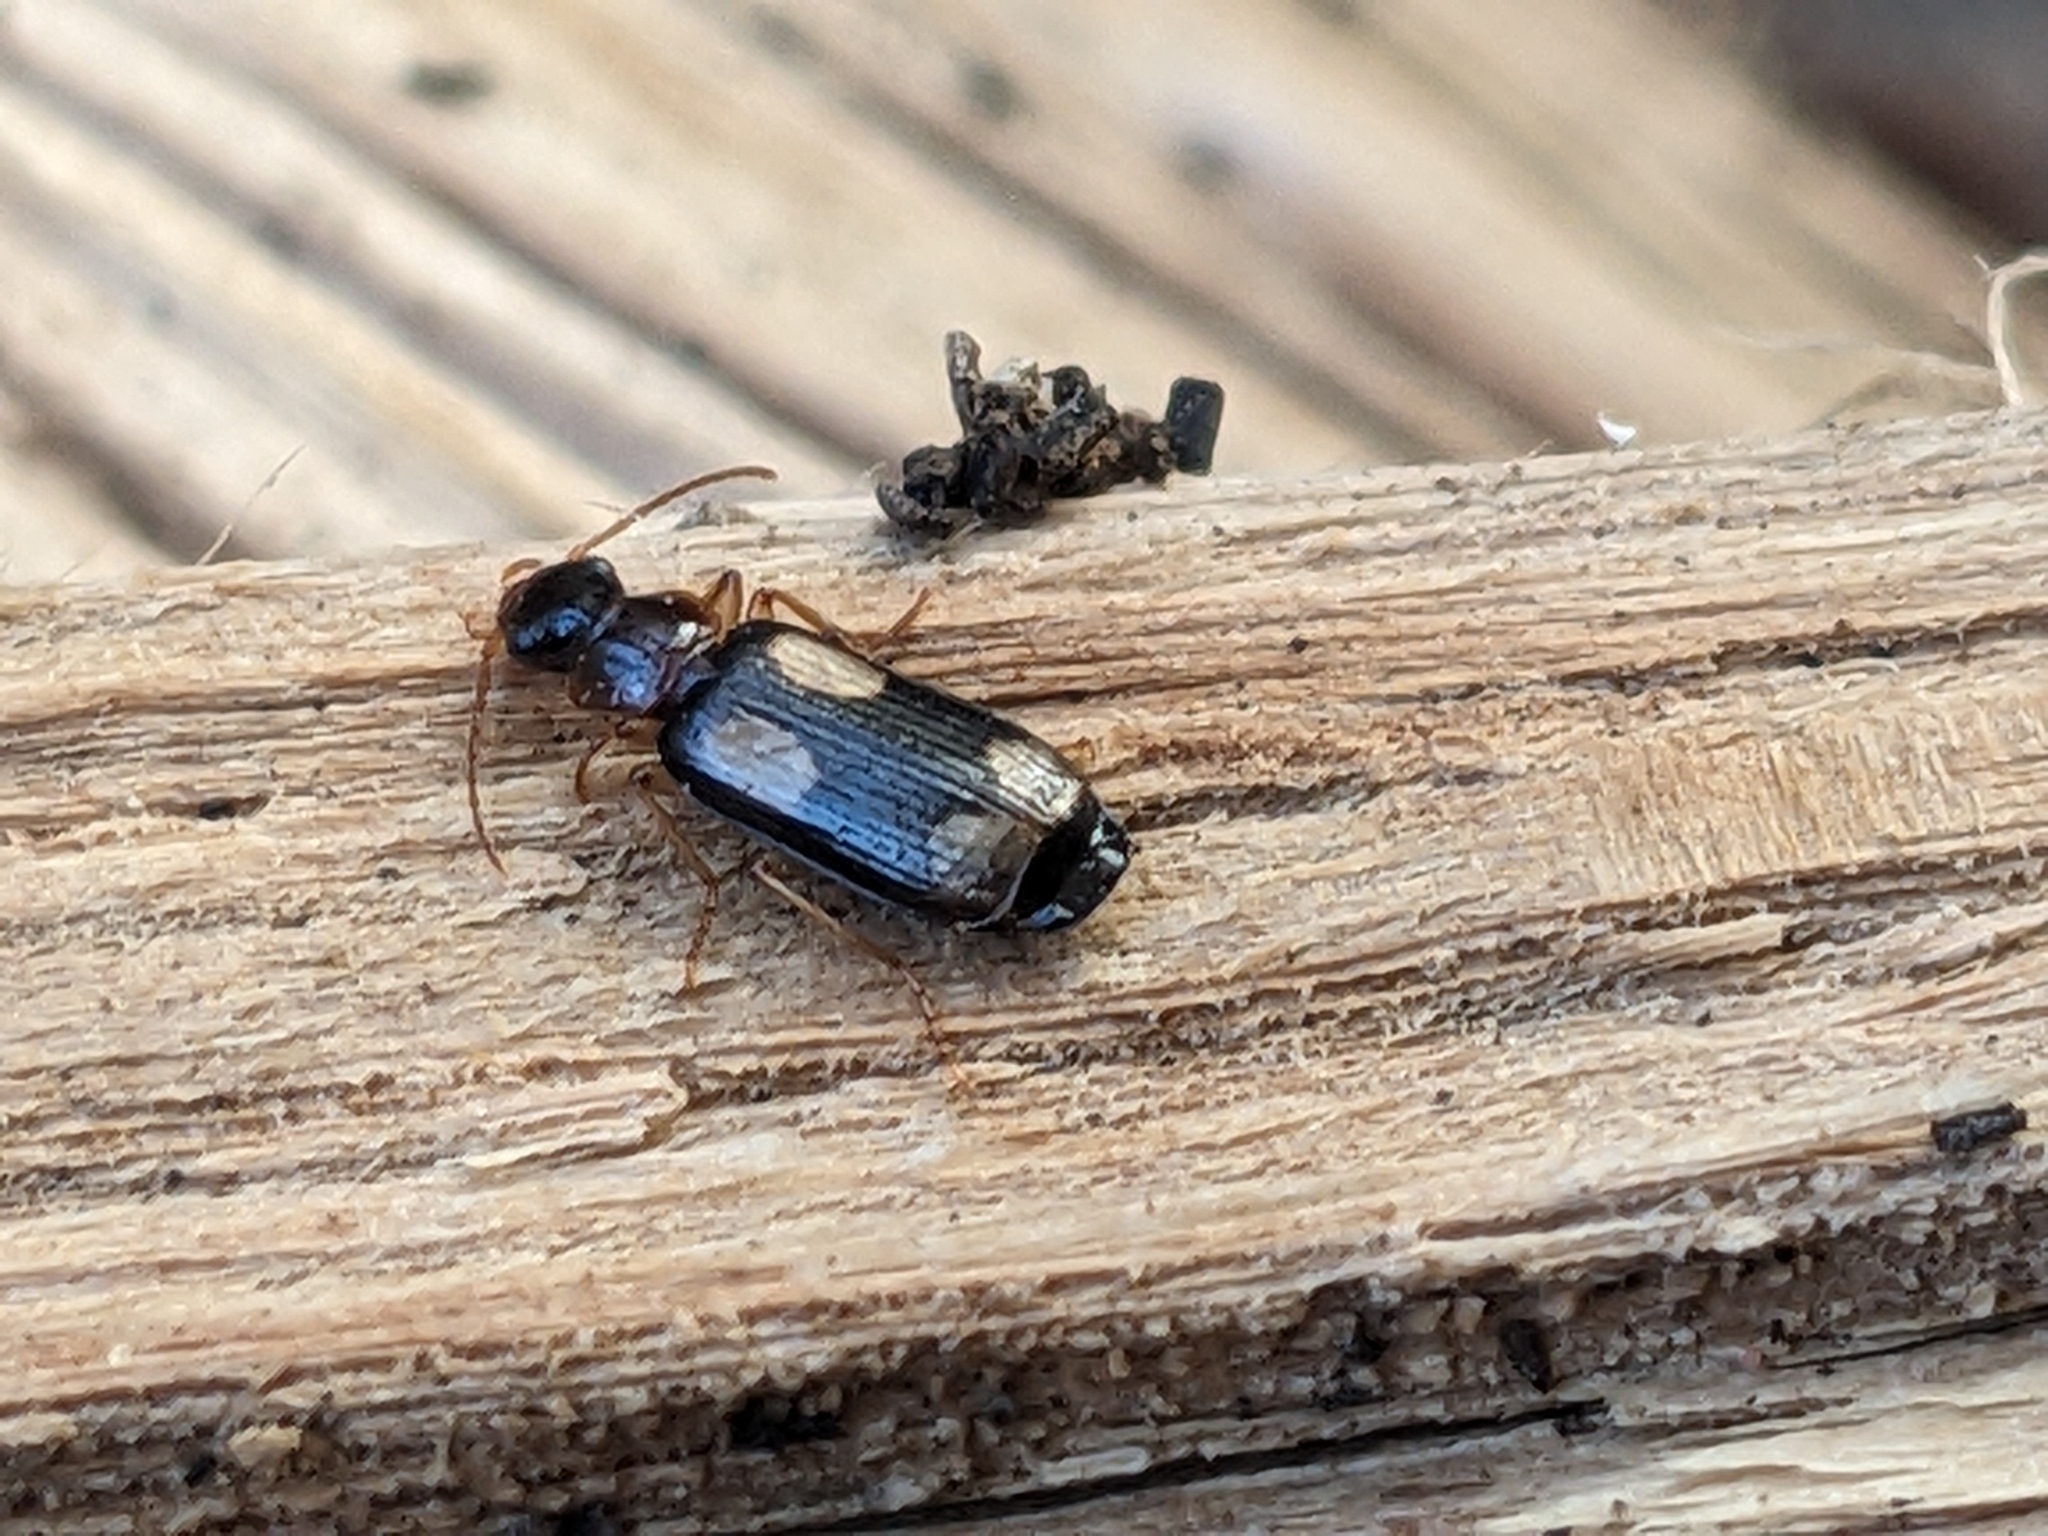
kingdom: Animalia
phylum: Arthropoda
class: Insecta
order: Coleoptera
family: Carabidae
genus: Dromius
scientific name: Dromius quadrimaculatus
